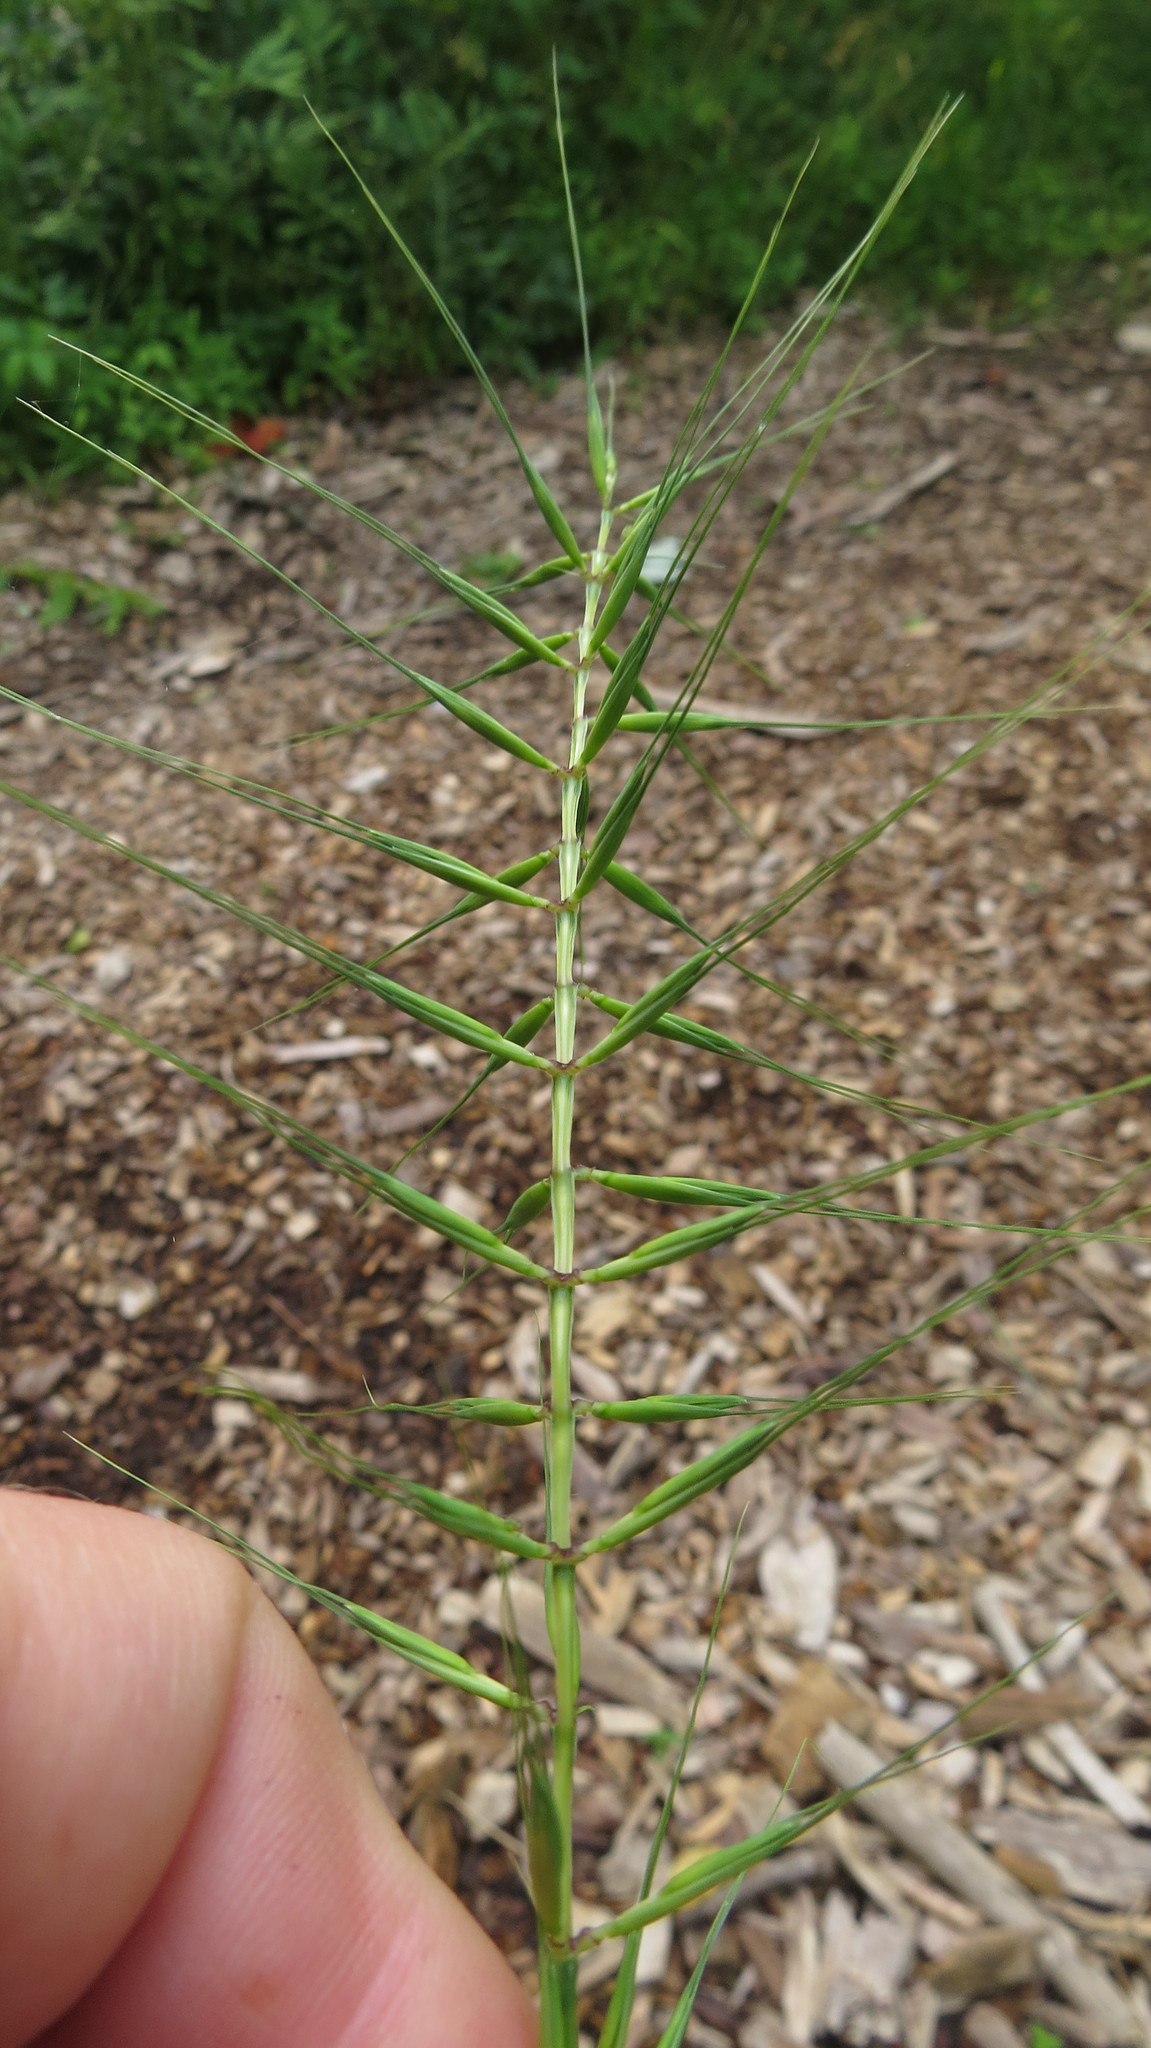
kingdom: Plantae
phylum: Tracheophyta
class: Liliopsida
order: Poales
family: Poaceae
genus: Elymus
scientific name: Elymus hystrix
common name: Bottlebrush grass
